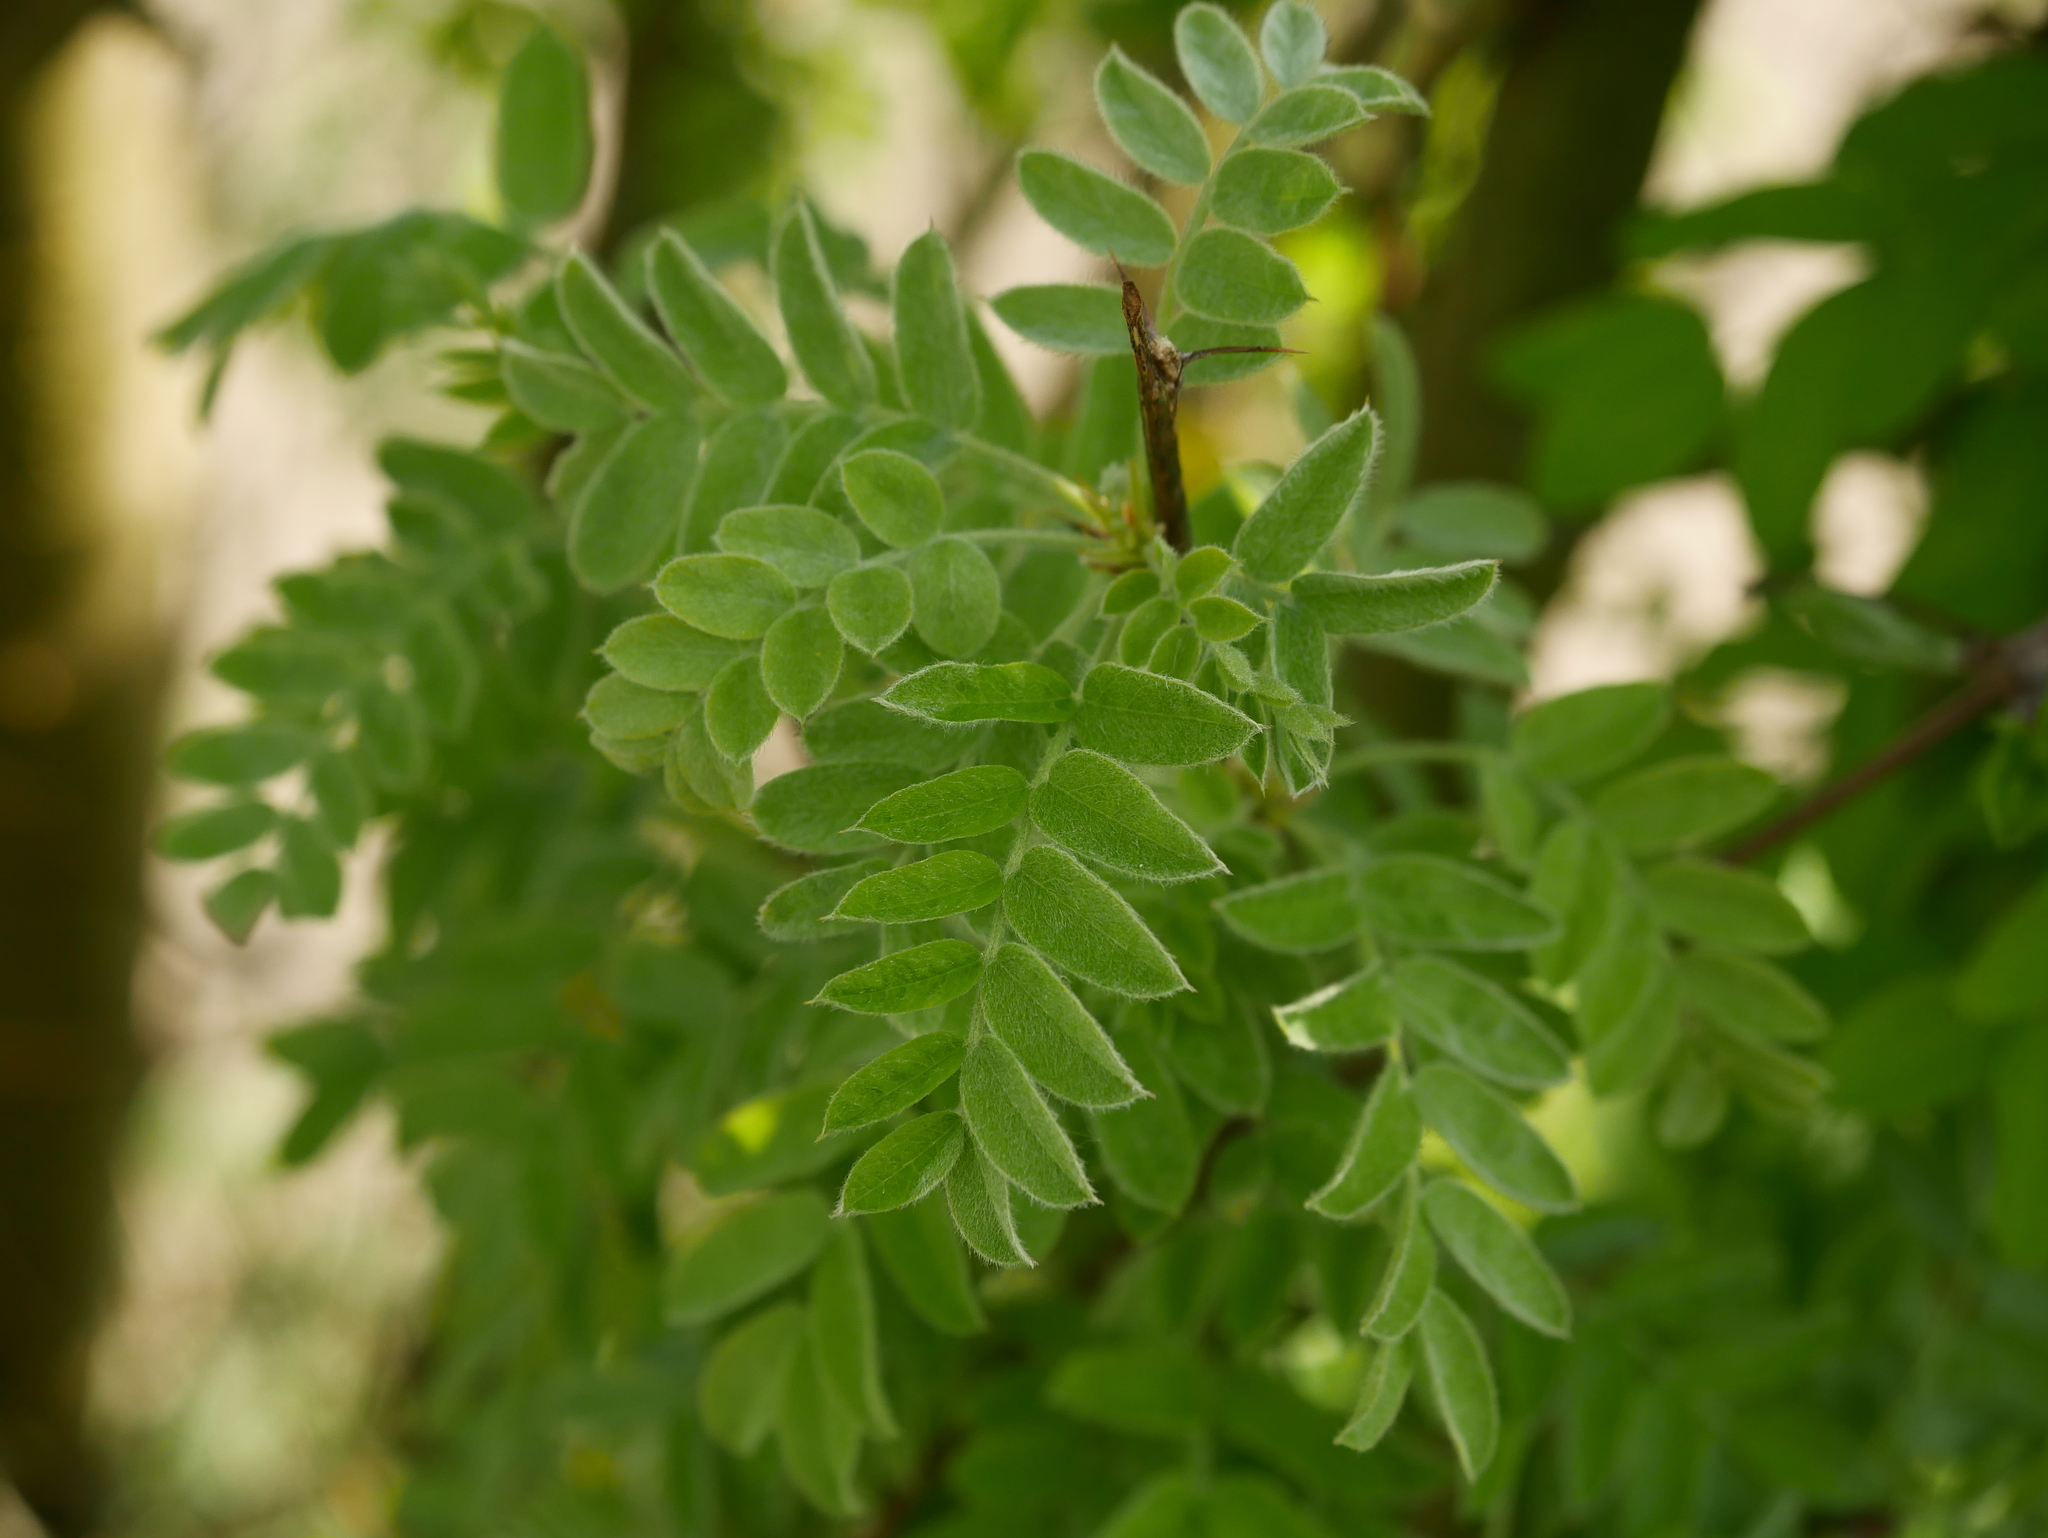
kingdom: Plantae
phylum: Tracheophyta
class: Magnoliopsida
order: Fabales
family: Fabaceae
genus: Caragana
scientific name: Caragana arborescens
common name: Siberian peashrub
